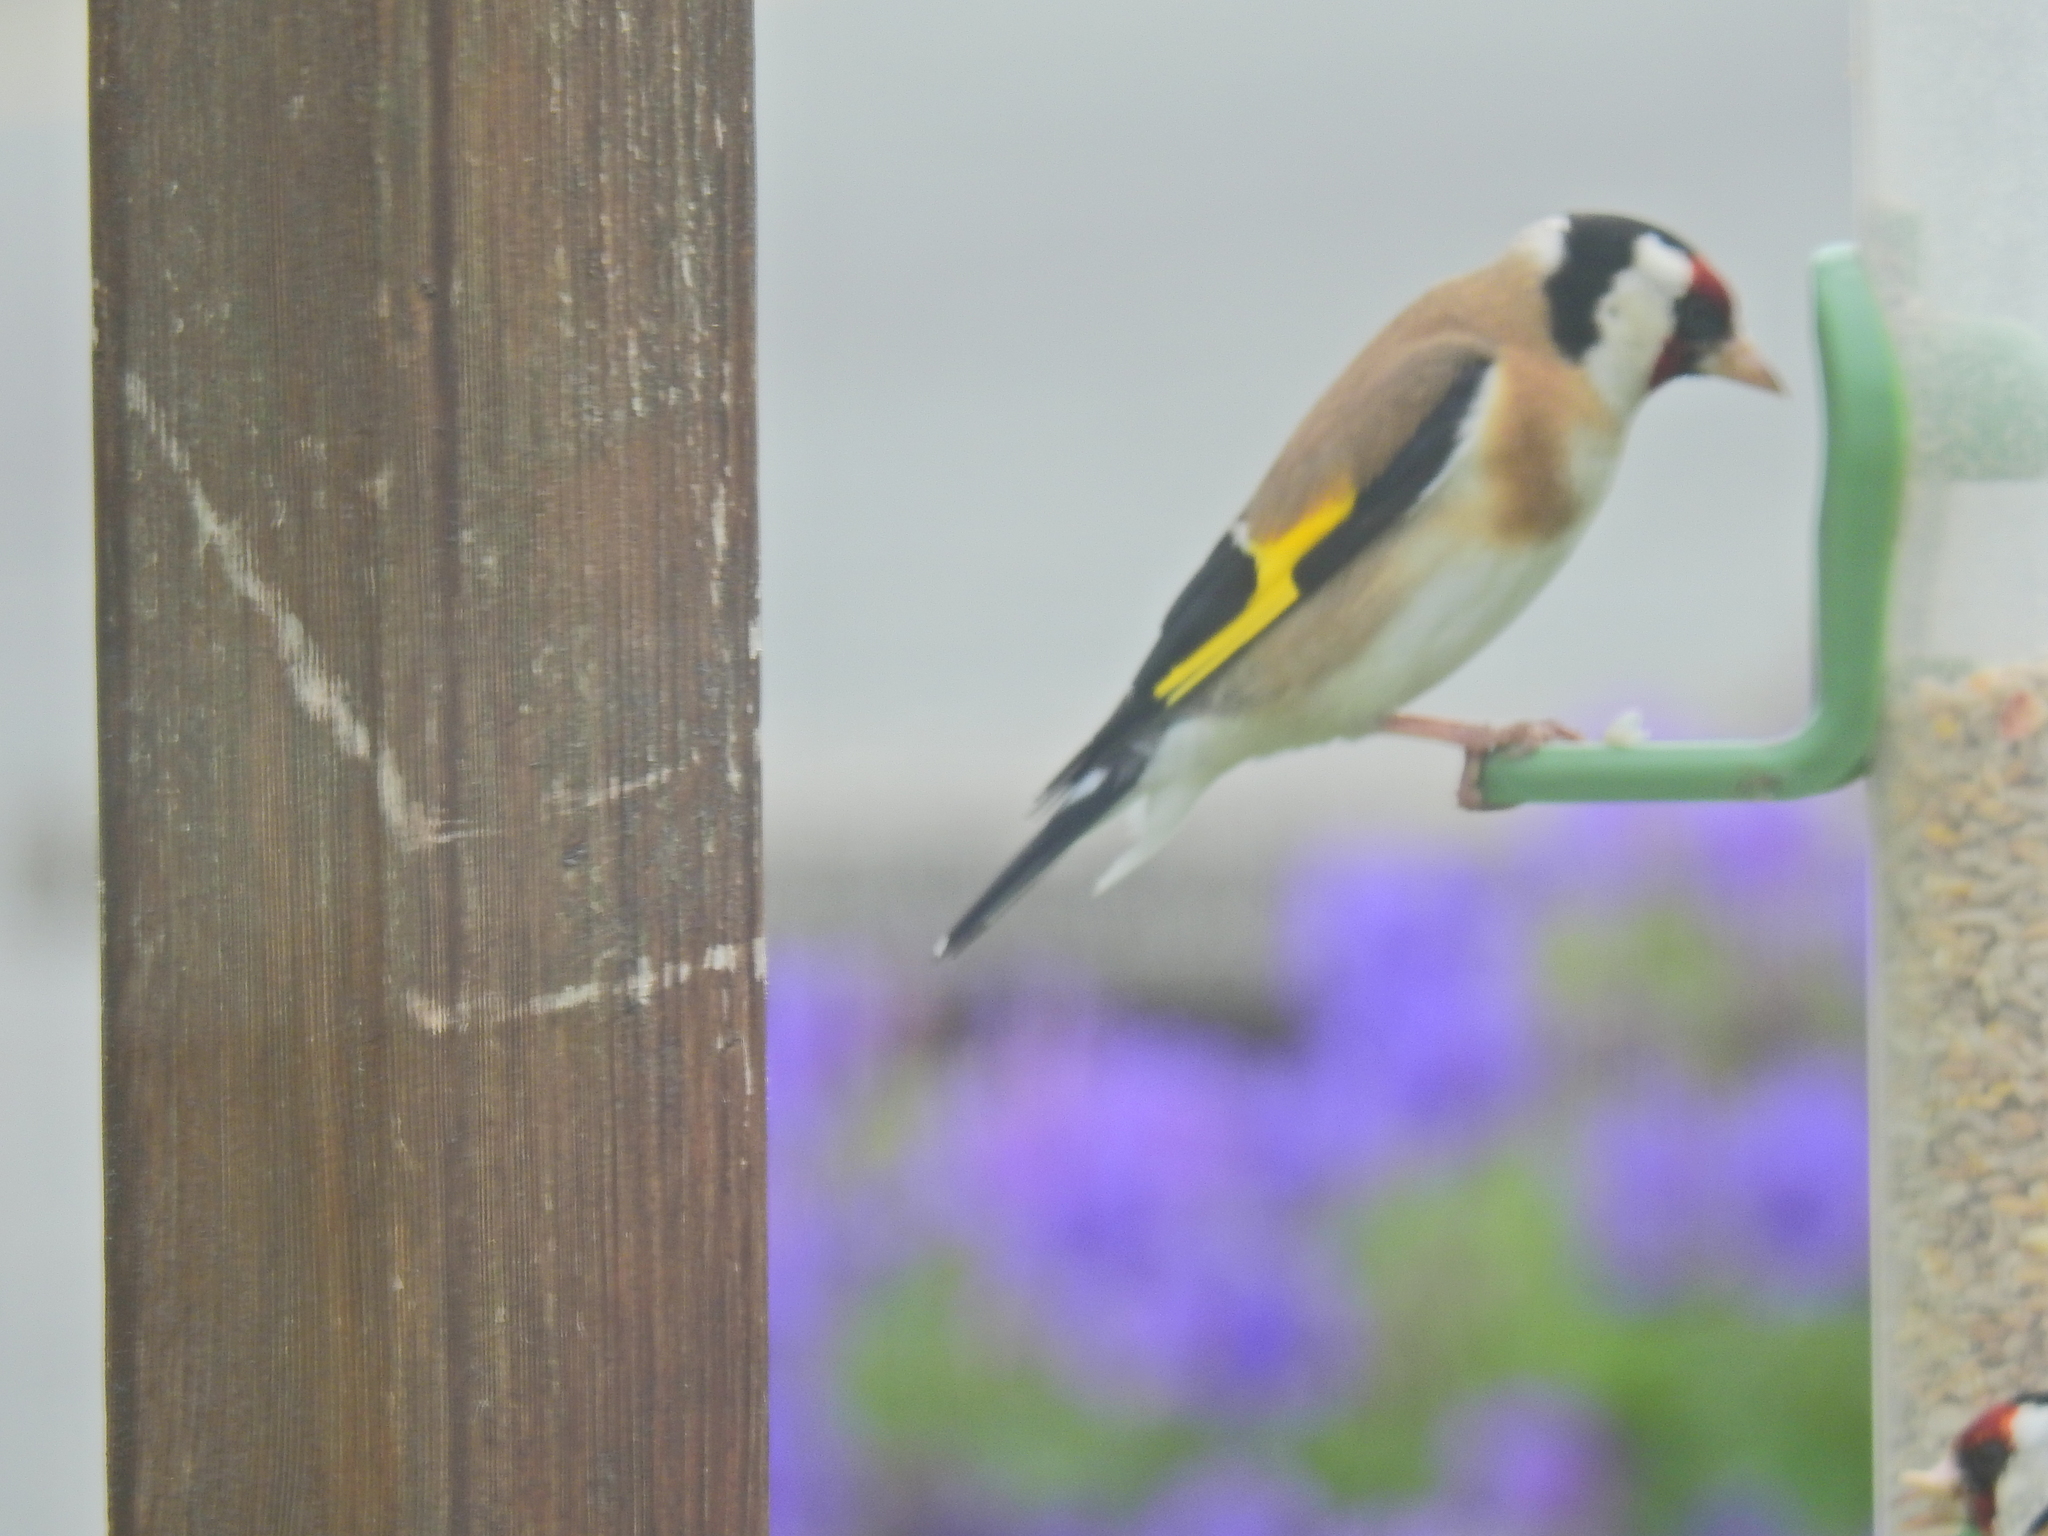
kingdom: Animalia
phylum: Chordata
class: Aves
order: Passeriformes
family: Fringillidae
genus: Carduelis
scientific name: Carduelis carduelis
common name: European goldfinch
